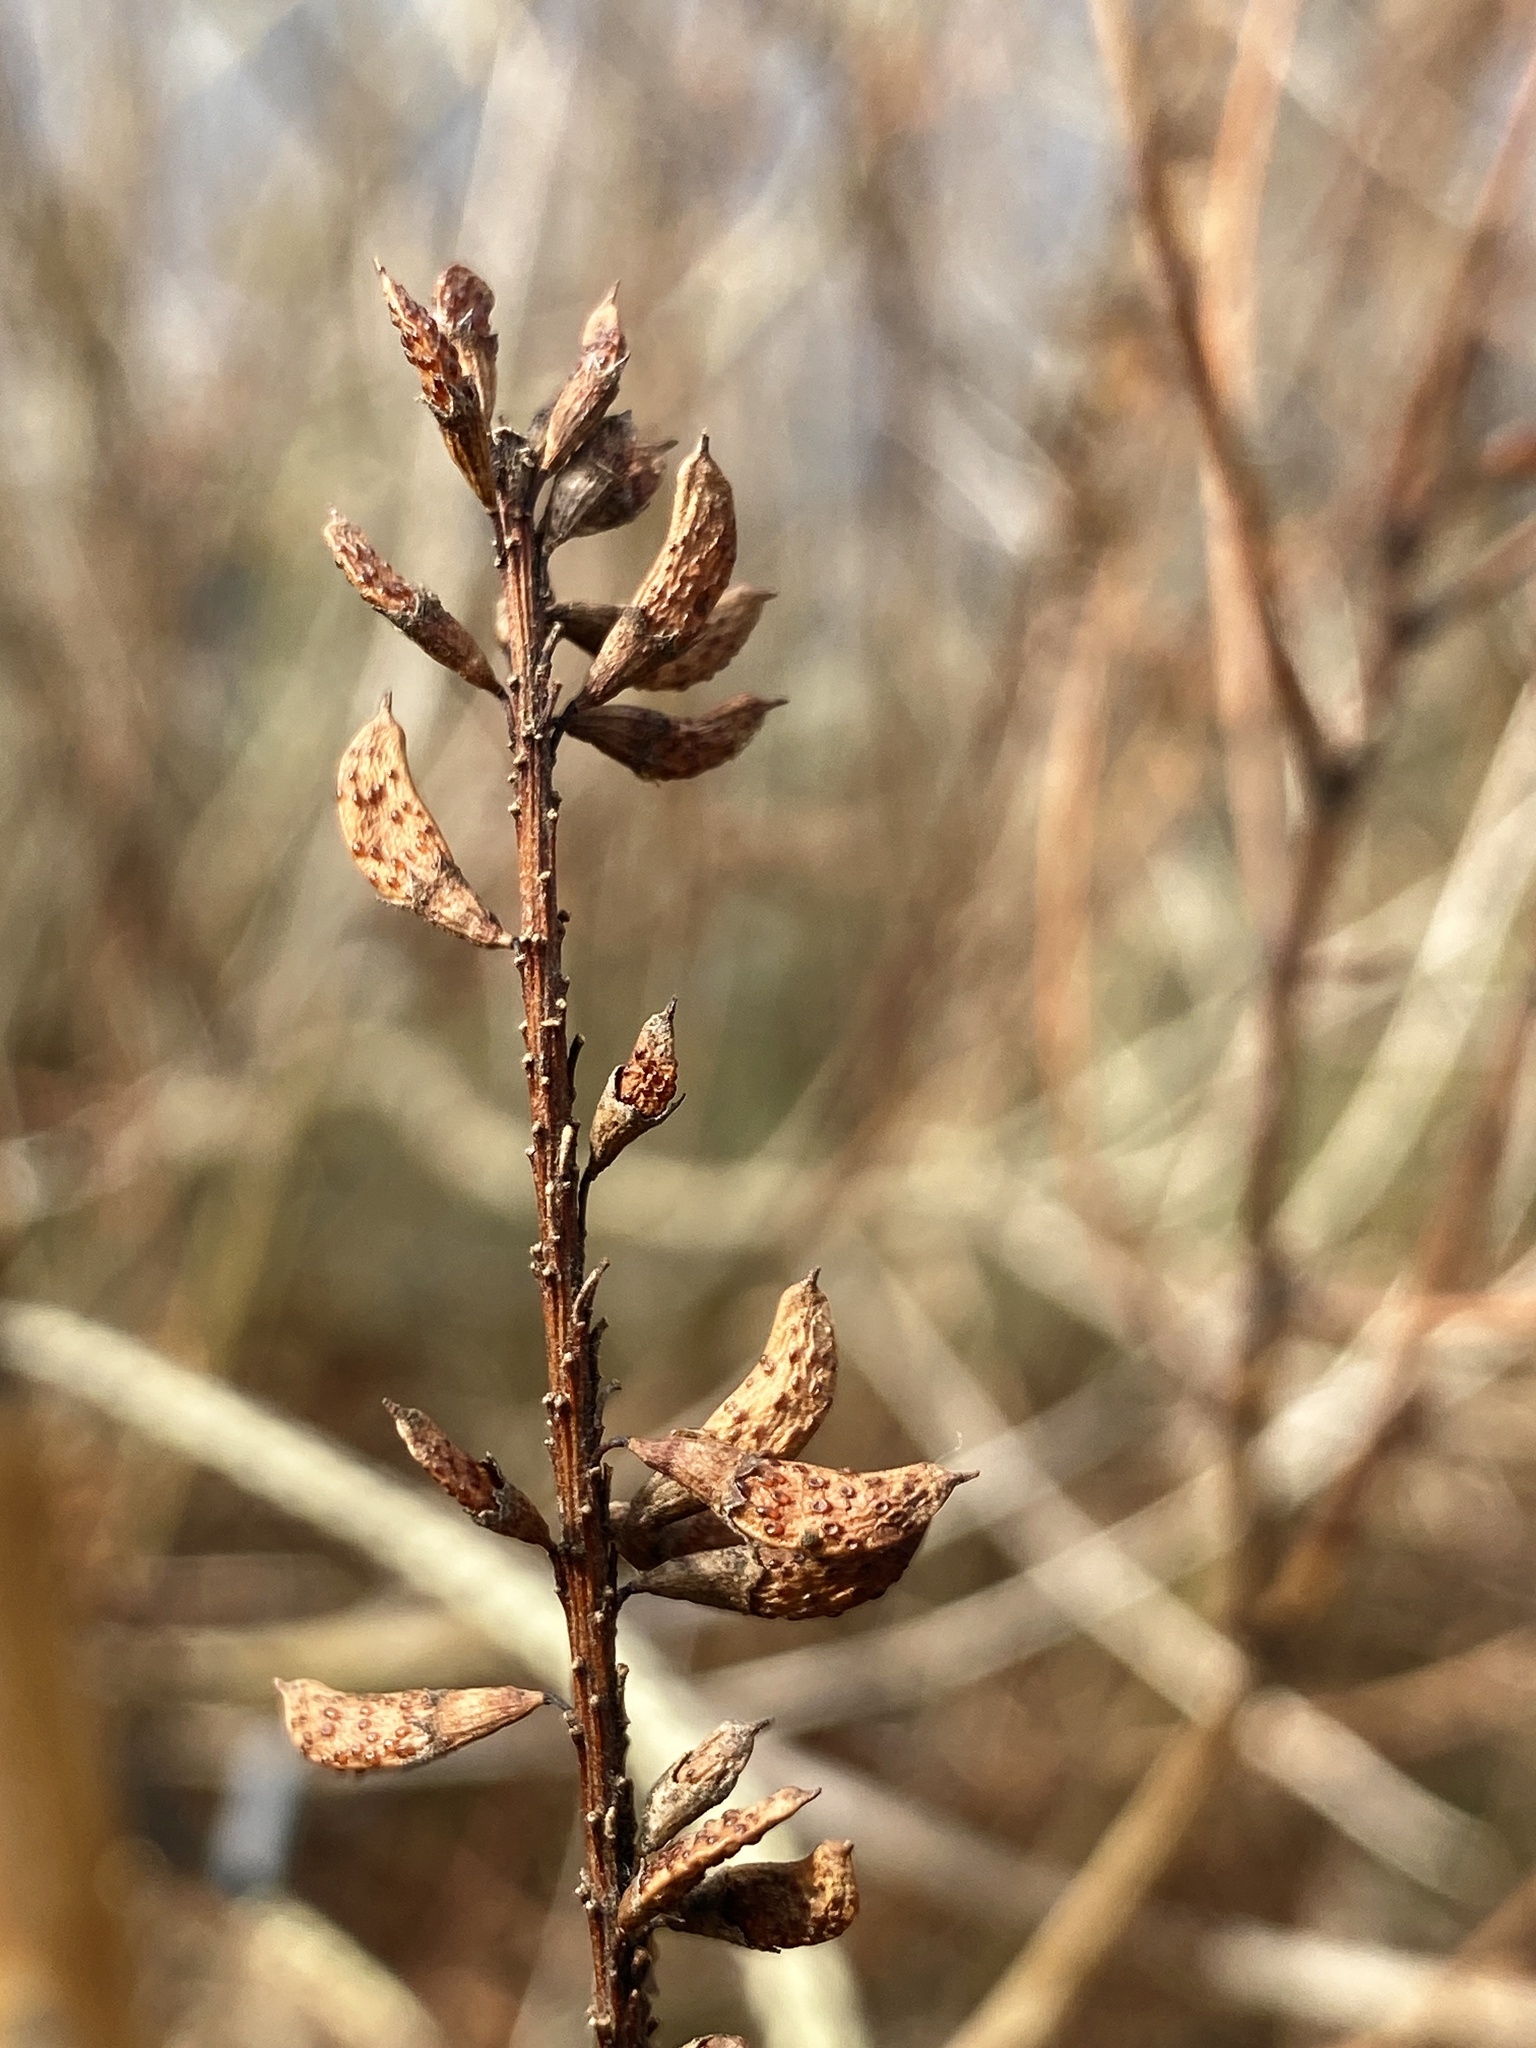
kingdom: Plantae
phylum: Tracheophyta
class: Magnoliopsida
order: Fabales
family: Fabaceae
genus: Amorpha
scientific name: Amorpha fruticosa
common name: False indigo
